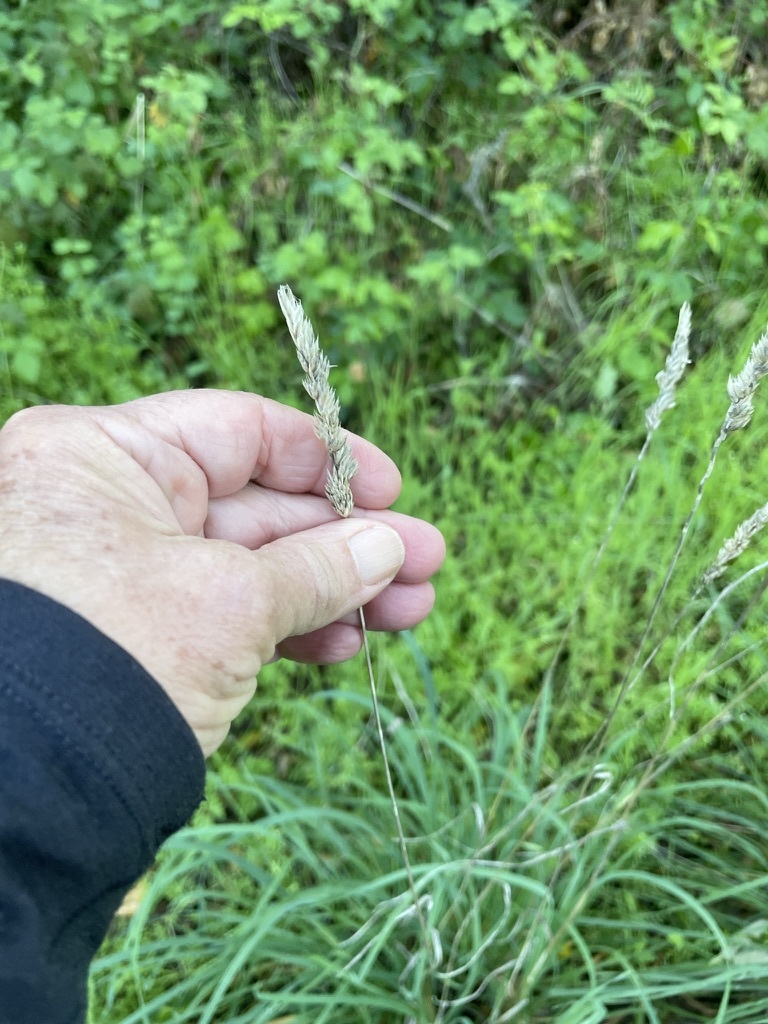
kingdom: Plantae
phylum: Tracheophyta
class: Liliopsida
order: Poales
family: Poaceae
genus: Phalaris
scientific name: Phalaris aquatica
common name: Bulbous canary-grass
